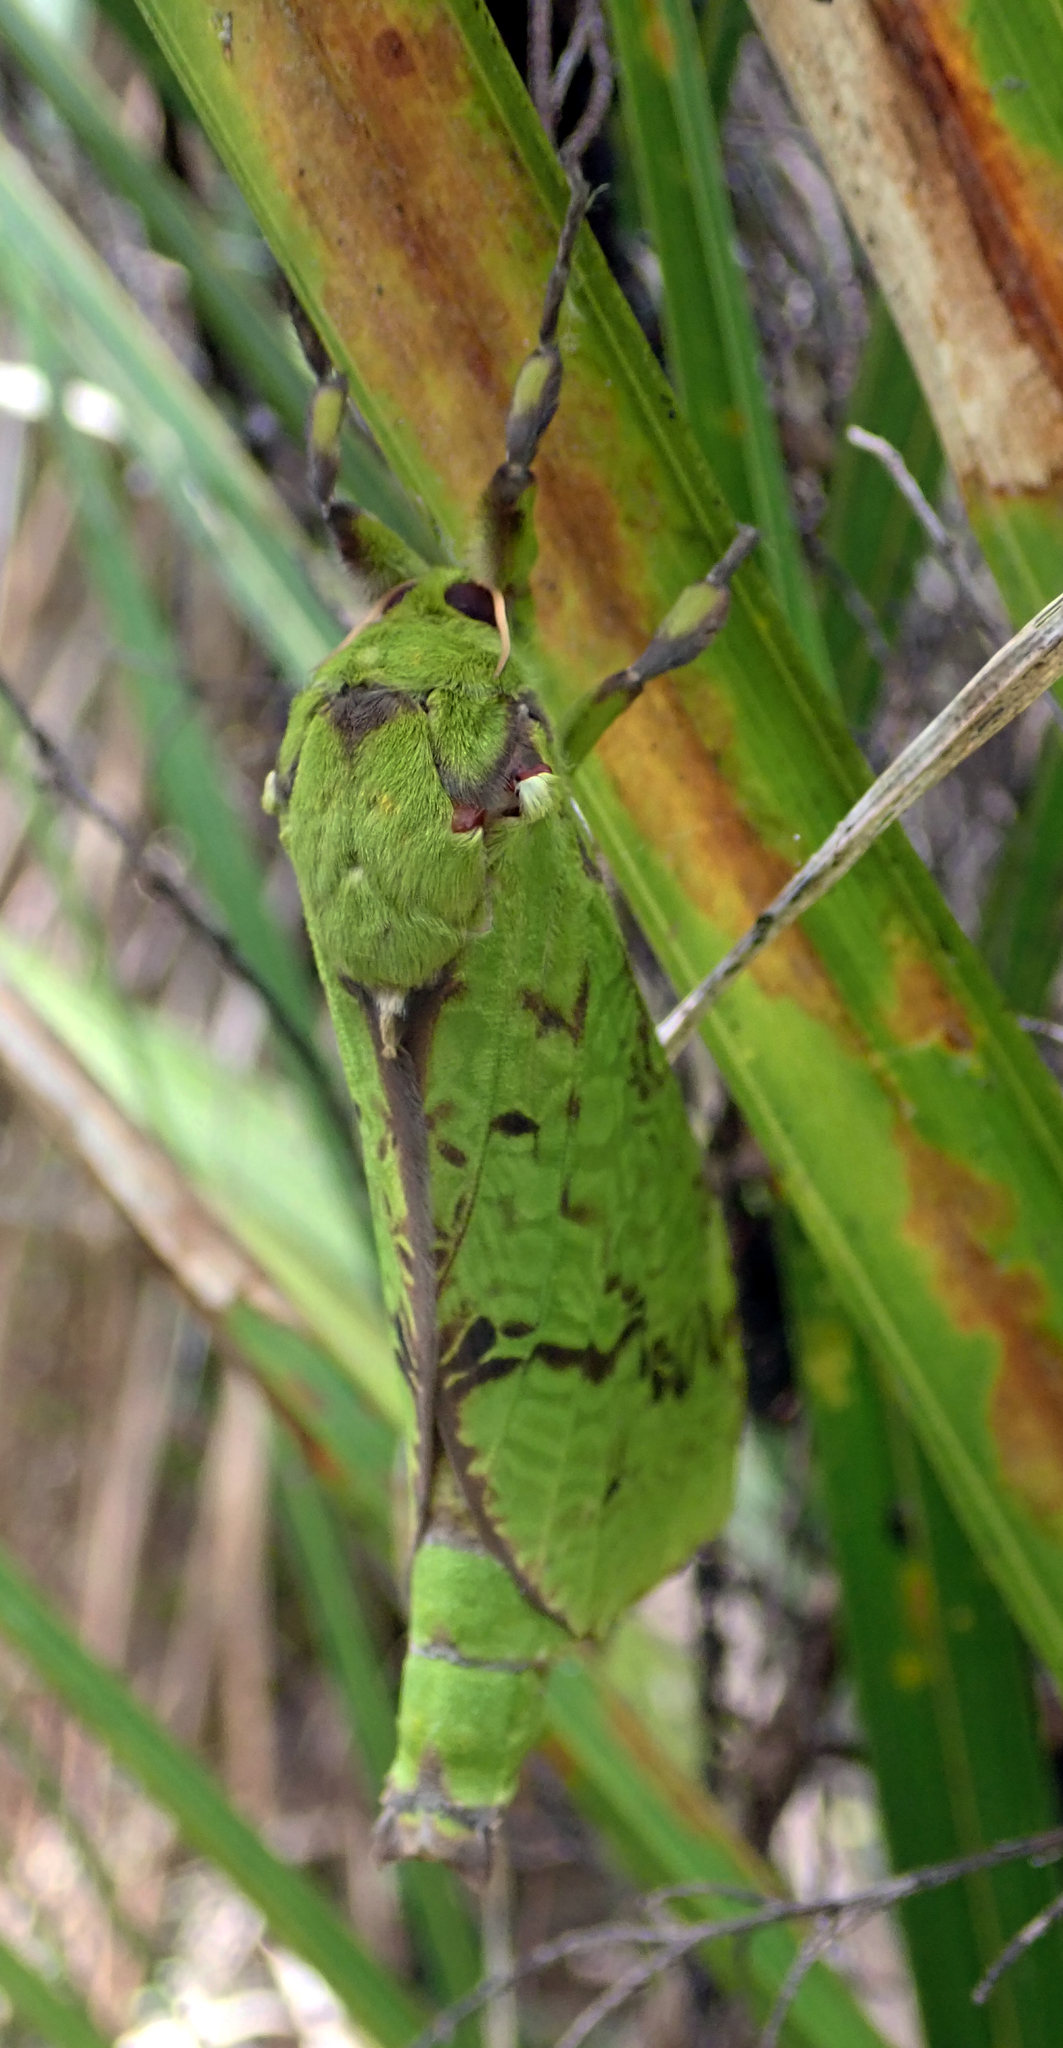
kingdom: Animalia
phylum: Arthropoda
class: Insecta
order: Lepidoptera
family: Hepialidae
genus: Aenetus
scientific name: Aenetus virescens
